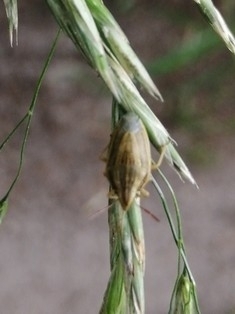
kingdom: Animalia
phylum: Arthropoda
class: Insecta
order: Hemiptera
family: Pentatomidae
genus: Aelia
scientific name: Aelia acuminata
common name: Bishop's mitre
